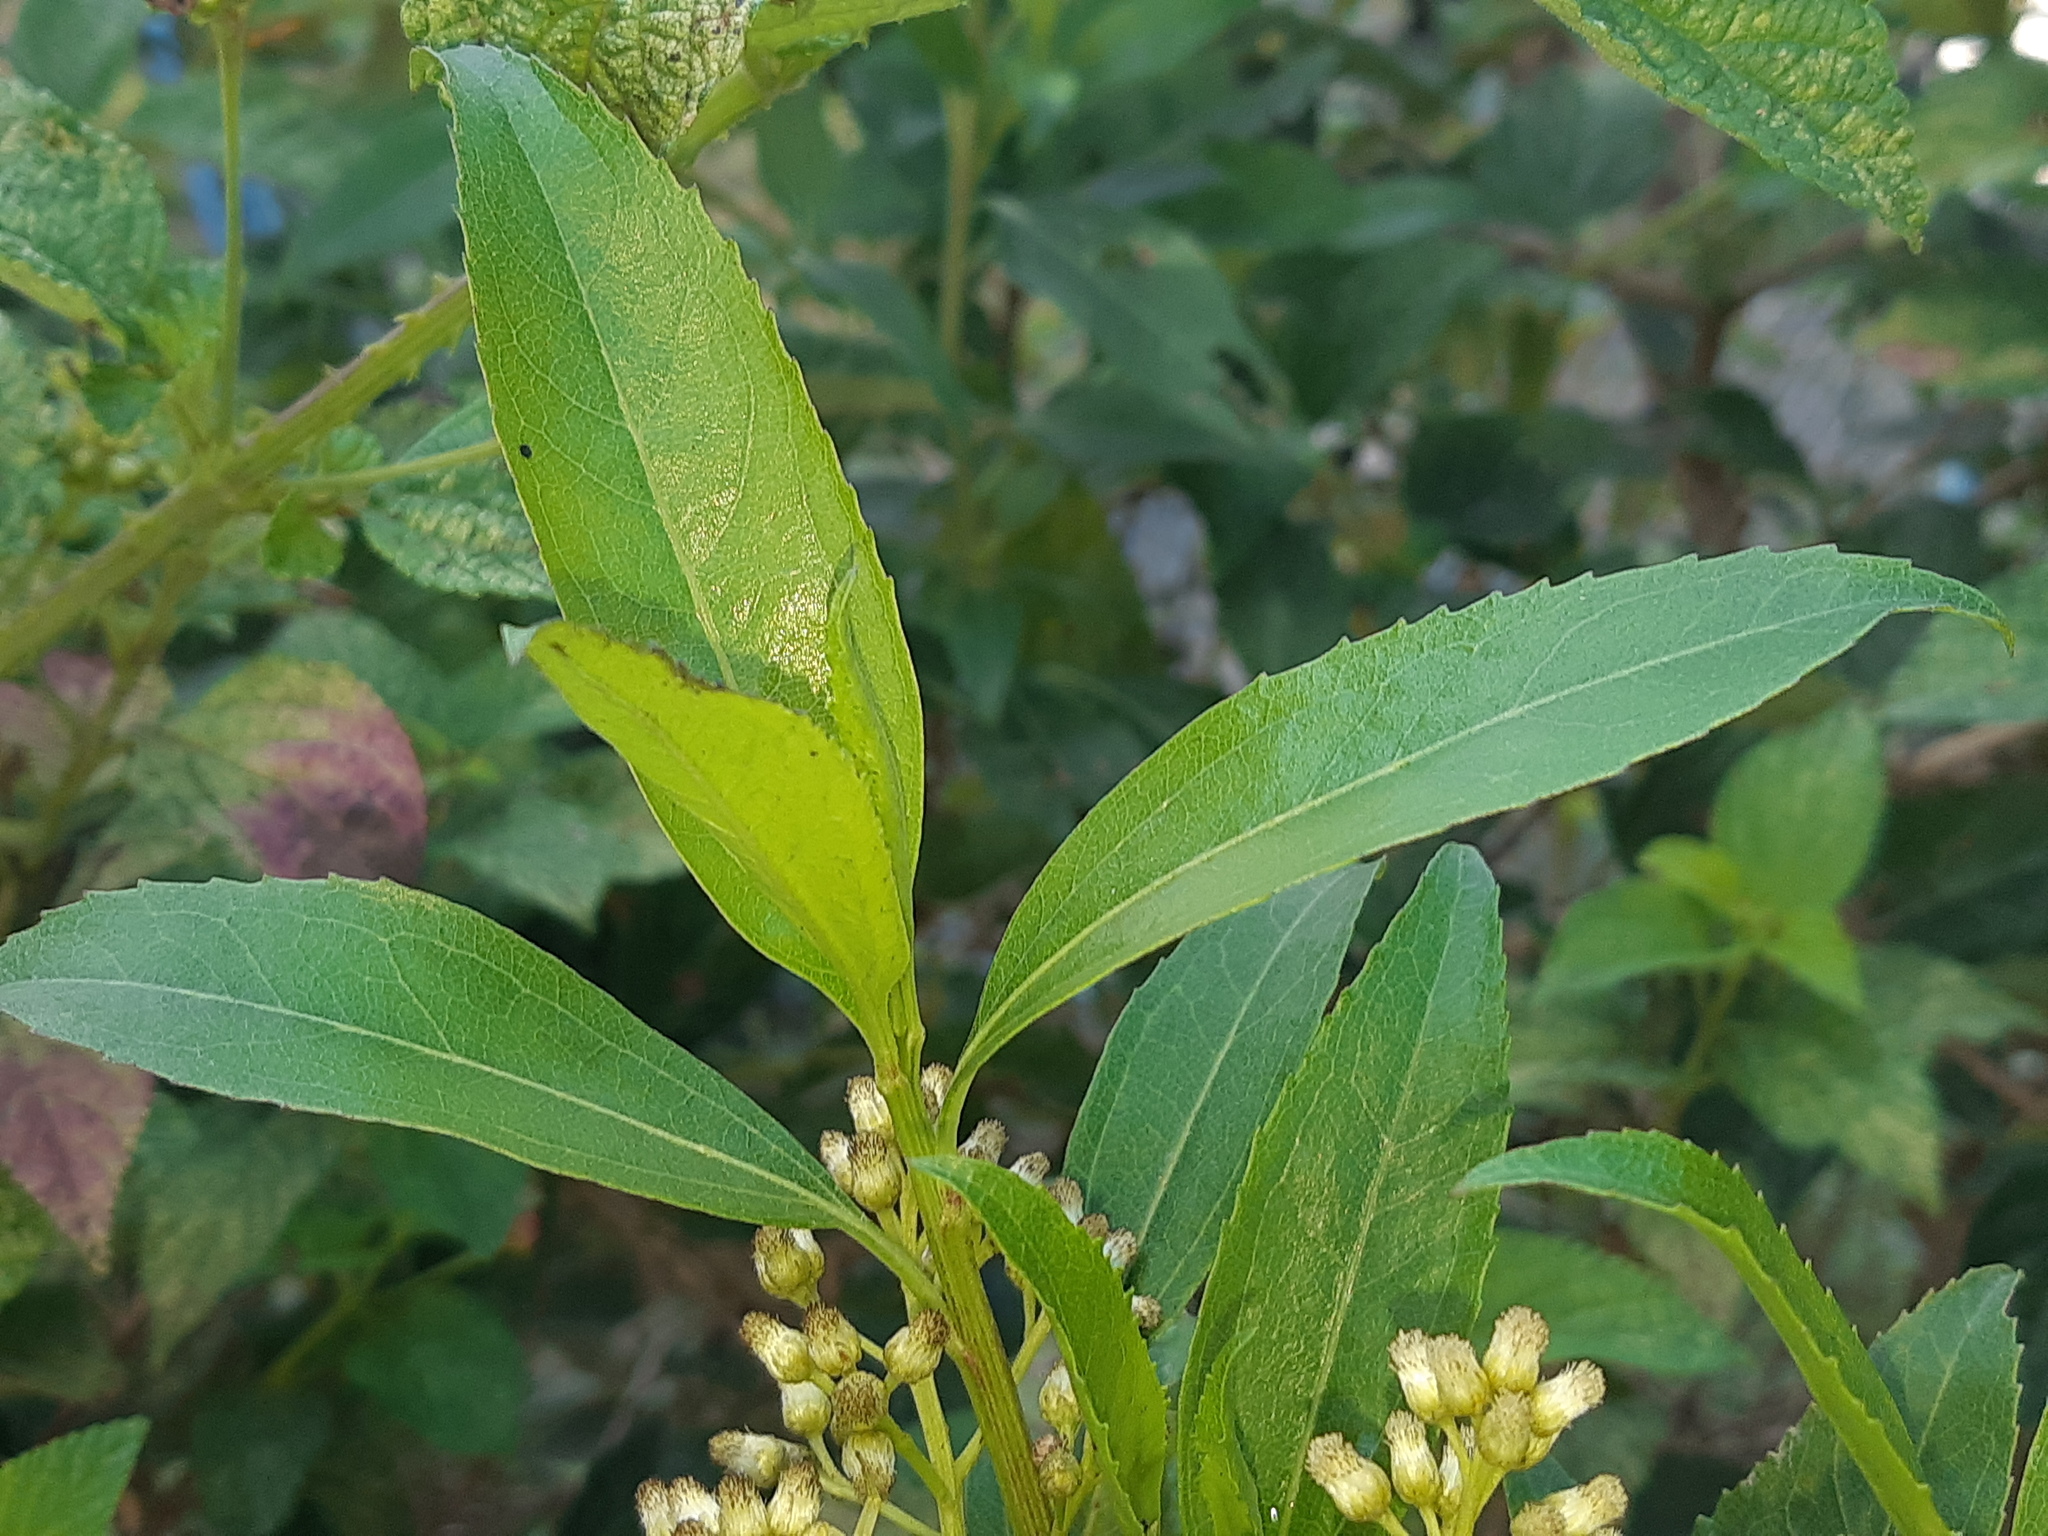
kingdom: Plantae
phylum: Tracheophyta
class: Magnoliopsida
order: Asterales
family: Asteraceae
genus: Baccharis
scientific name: Baccharis latifolia
